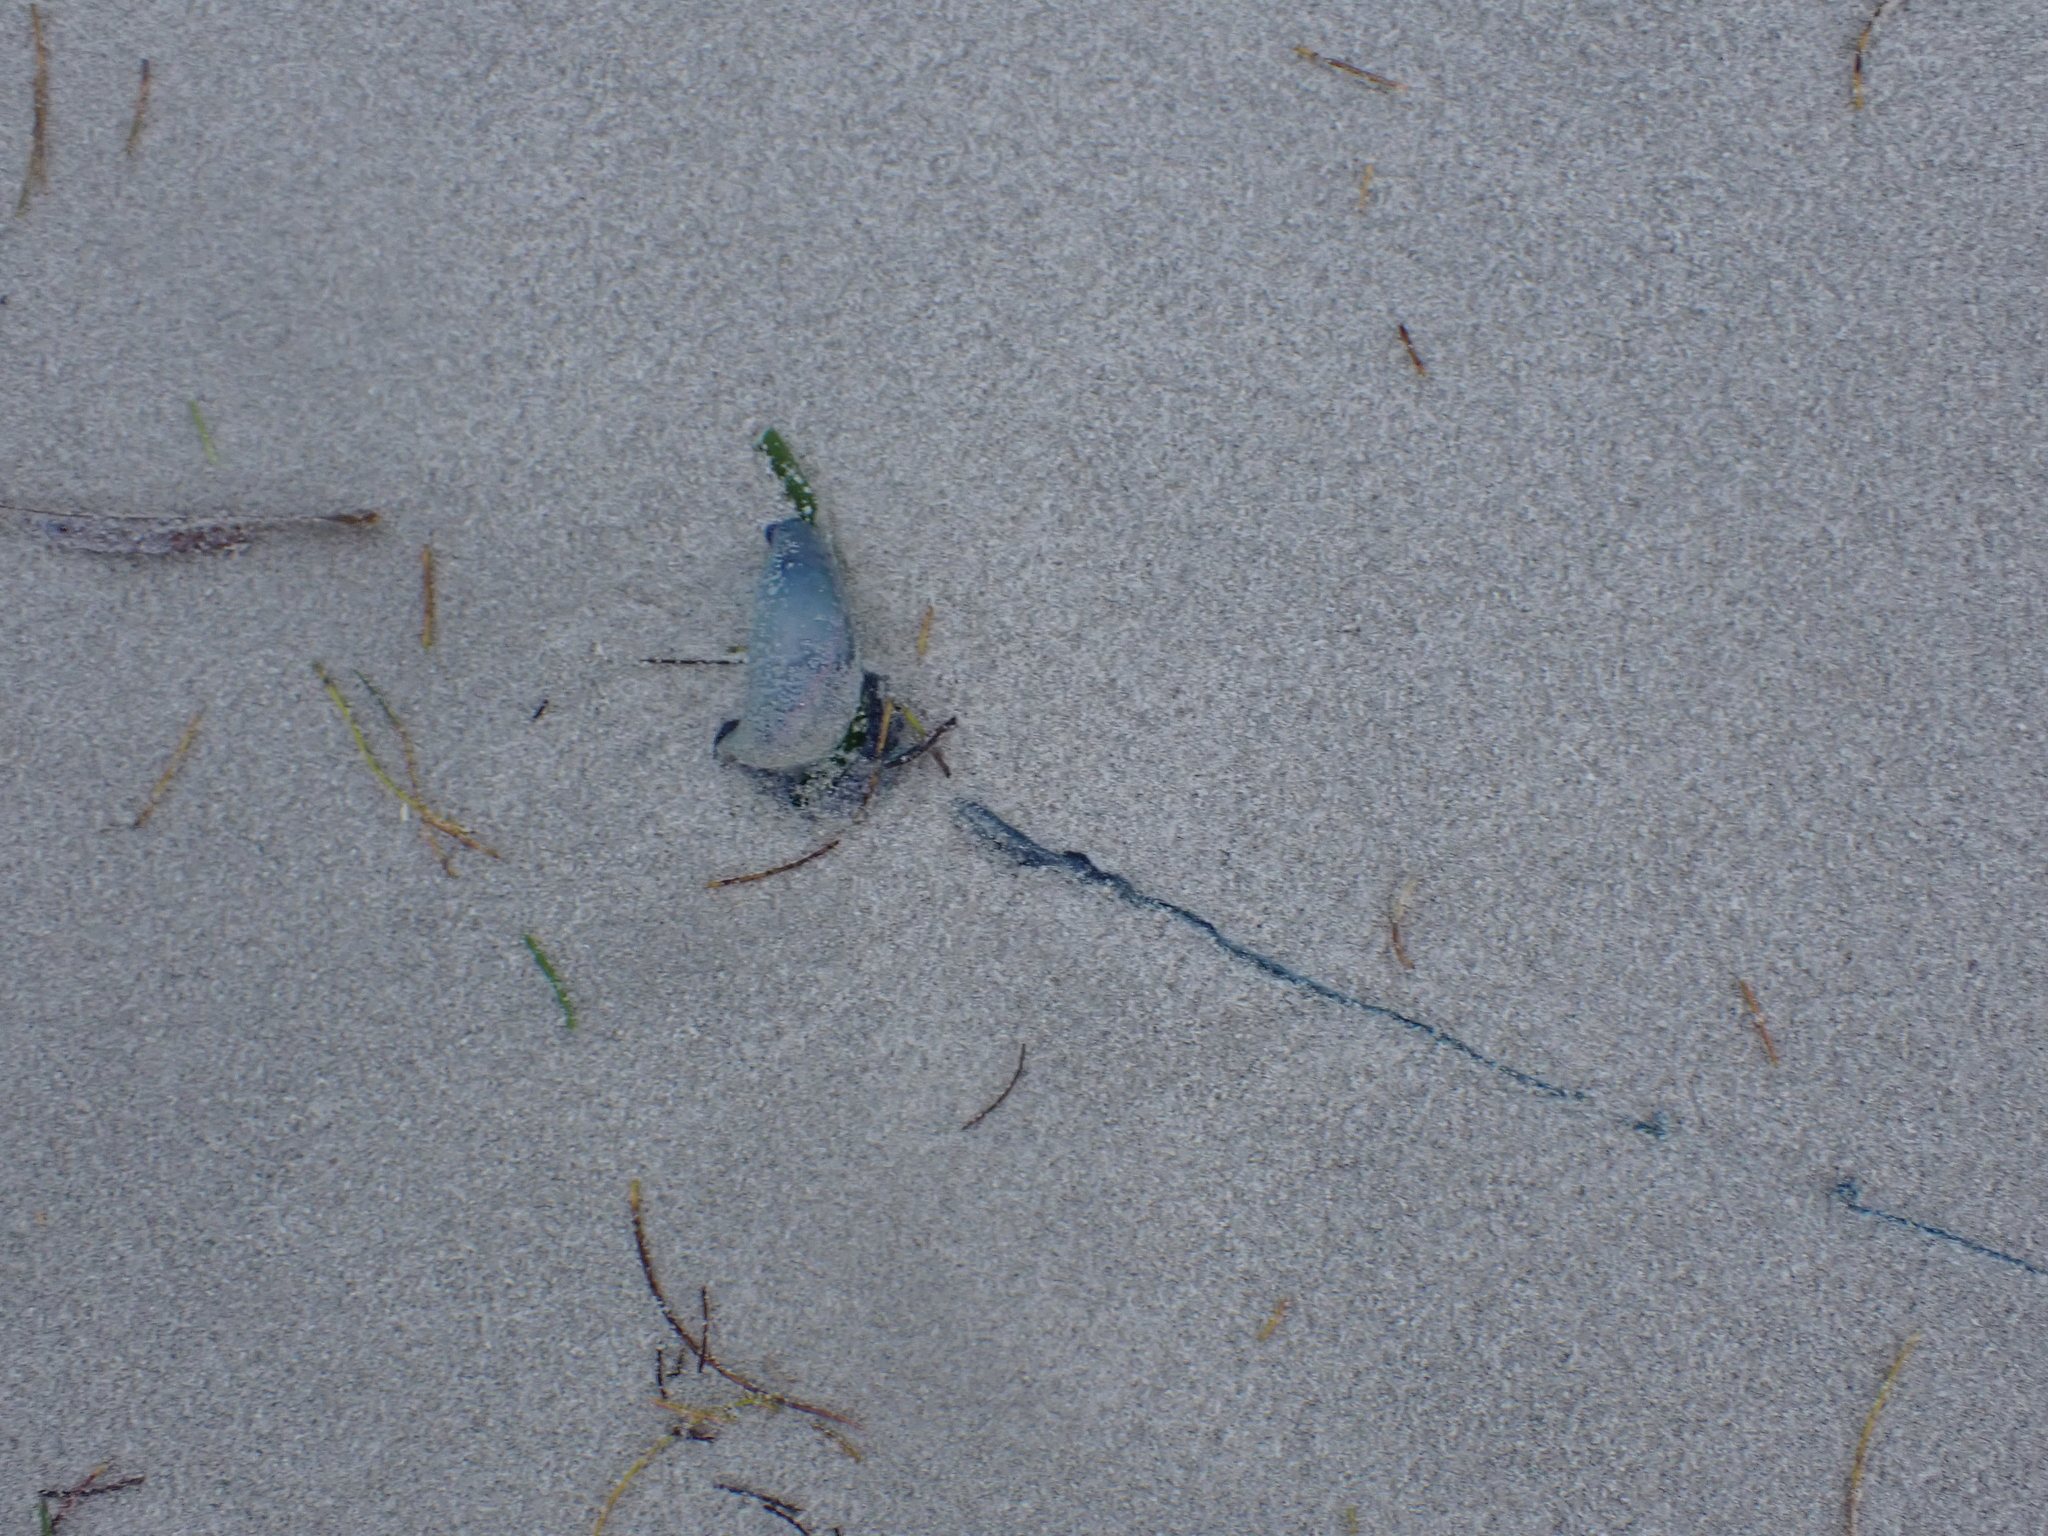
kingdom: Animalia
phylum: Cnidaria
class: Hydrozoa
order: Siphonophorae
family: Physaliidae
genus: Physalia
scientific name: Physalia physalis
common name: Portuguese man-of-war
